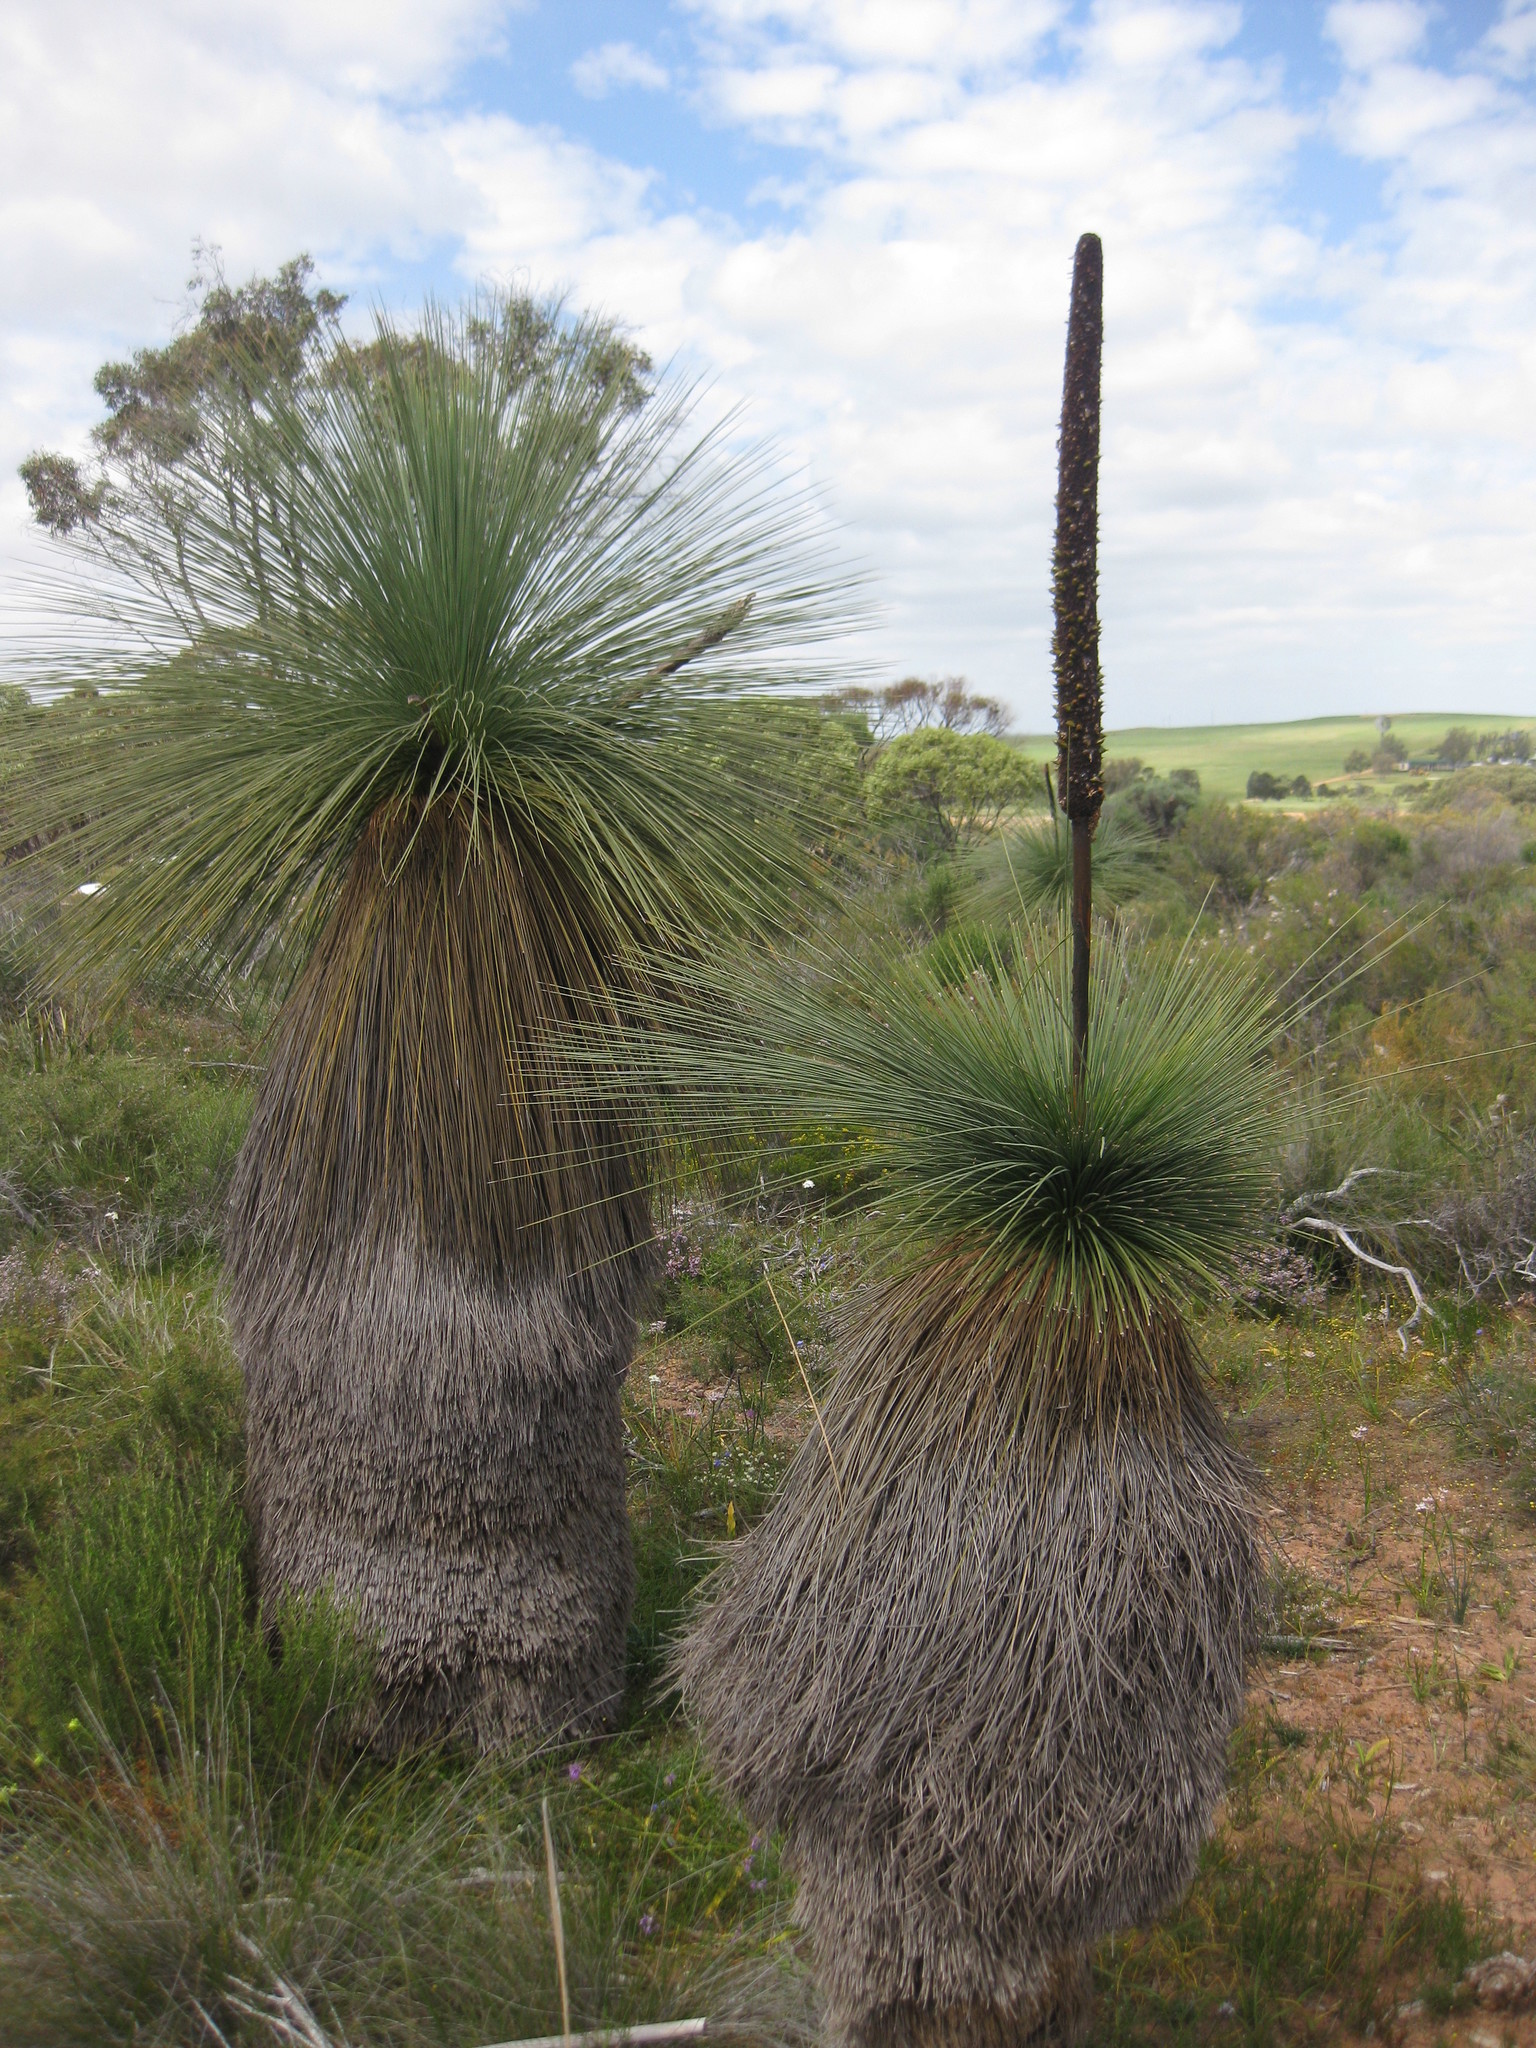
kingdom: Plantae
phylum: Tracheophyta
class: Liliopsida
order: Asparagales
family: Asphodelaceae
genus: Xanthorrhoea
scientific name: Xanthorrhoea drummondii
